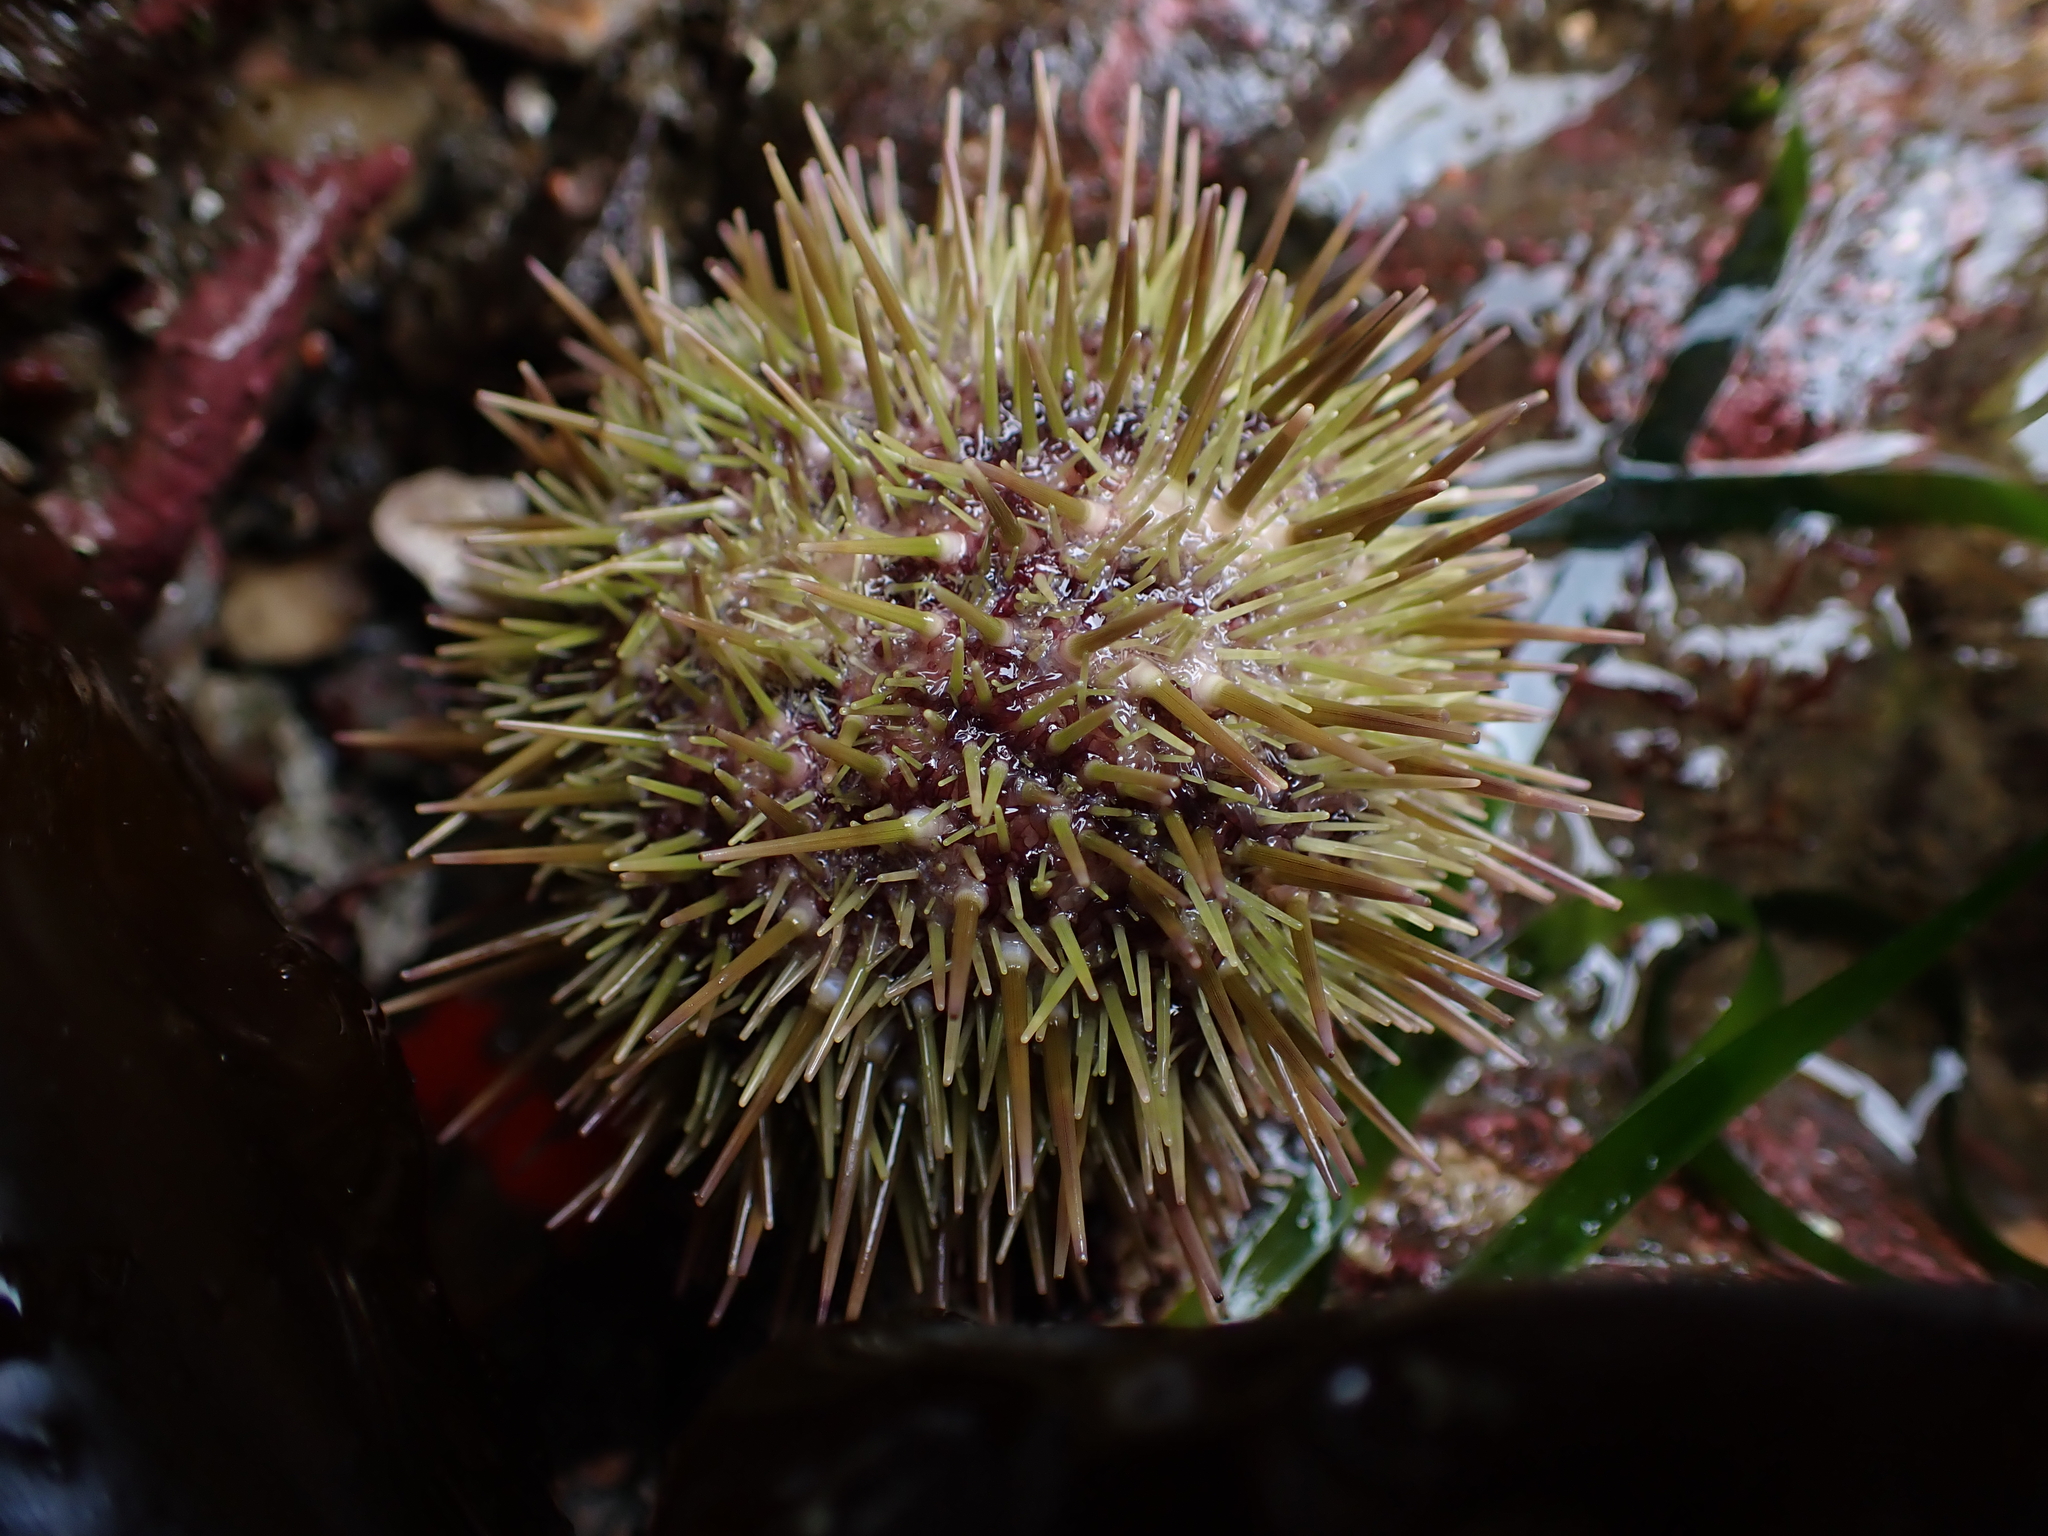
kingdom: Animalia
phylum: Echinodermata
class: Echinoidea
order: Camarodonta
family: Strongylocentrotidae
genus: Strongylocentrotus
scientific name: Strongylocentrotus droebachiensis
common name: Northern sea urchin
